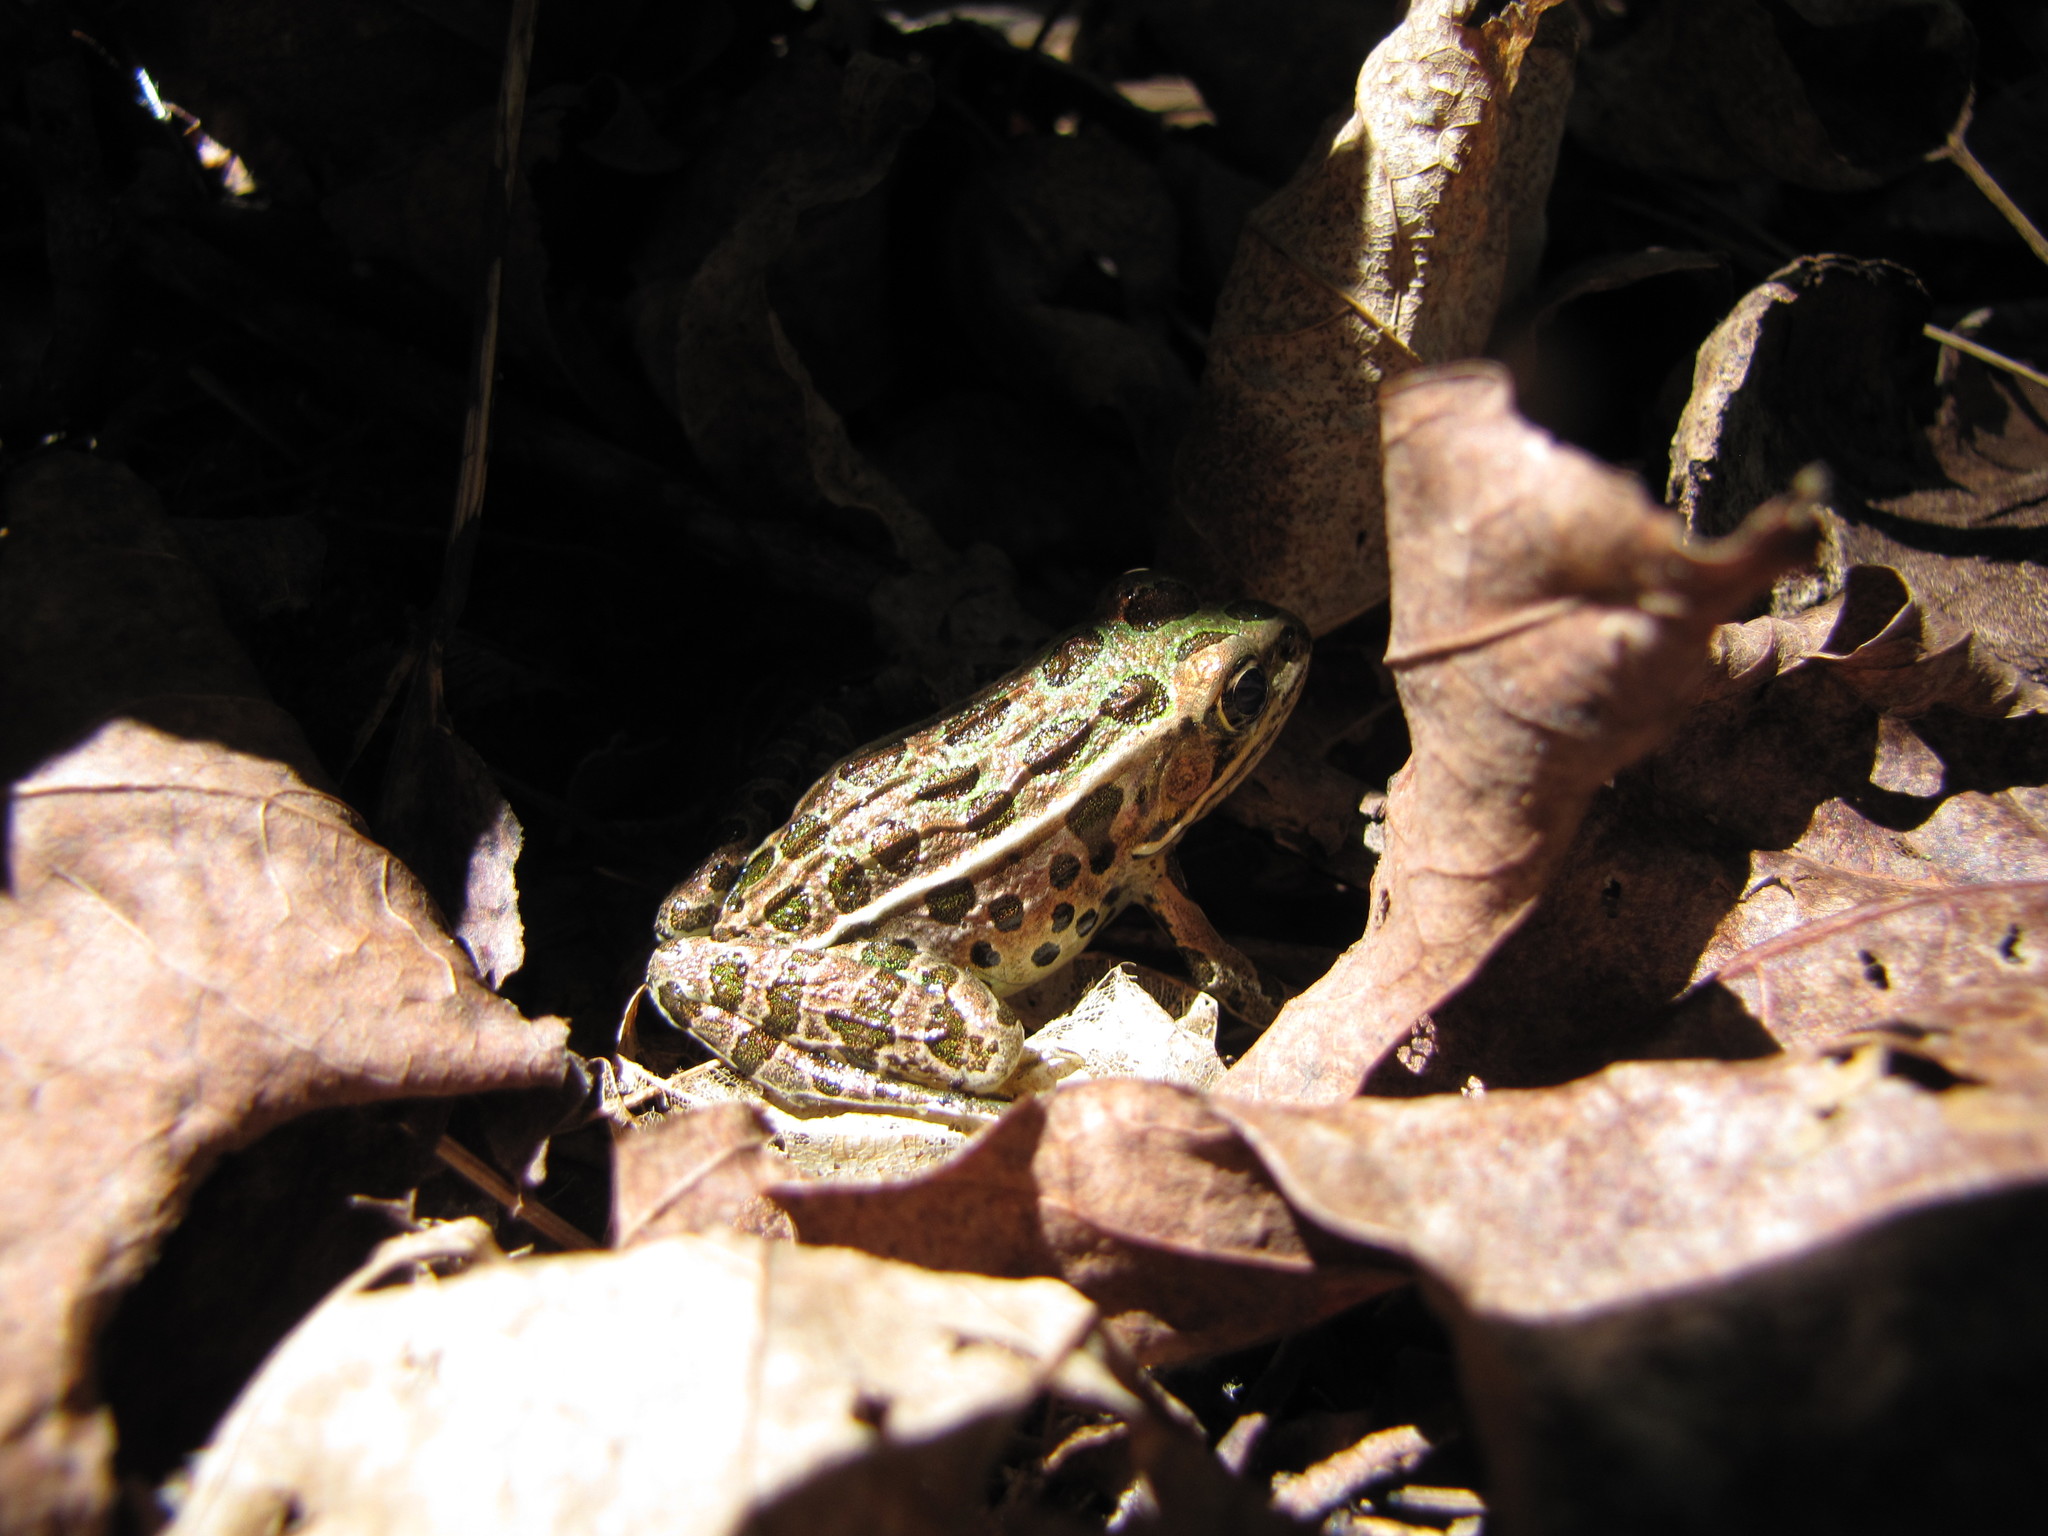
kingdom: Animalia
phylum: Chordata
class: Amphibia
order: Anura
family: Ranidae
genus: Lithobates
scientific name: Lithobates pipiens
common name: Northern leopard frog
